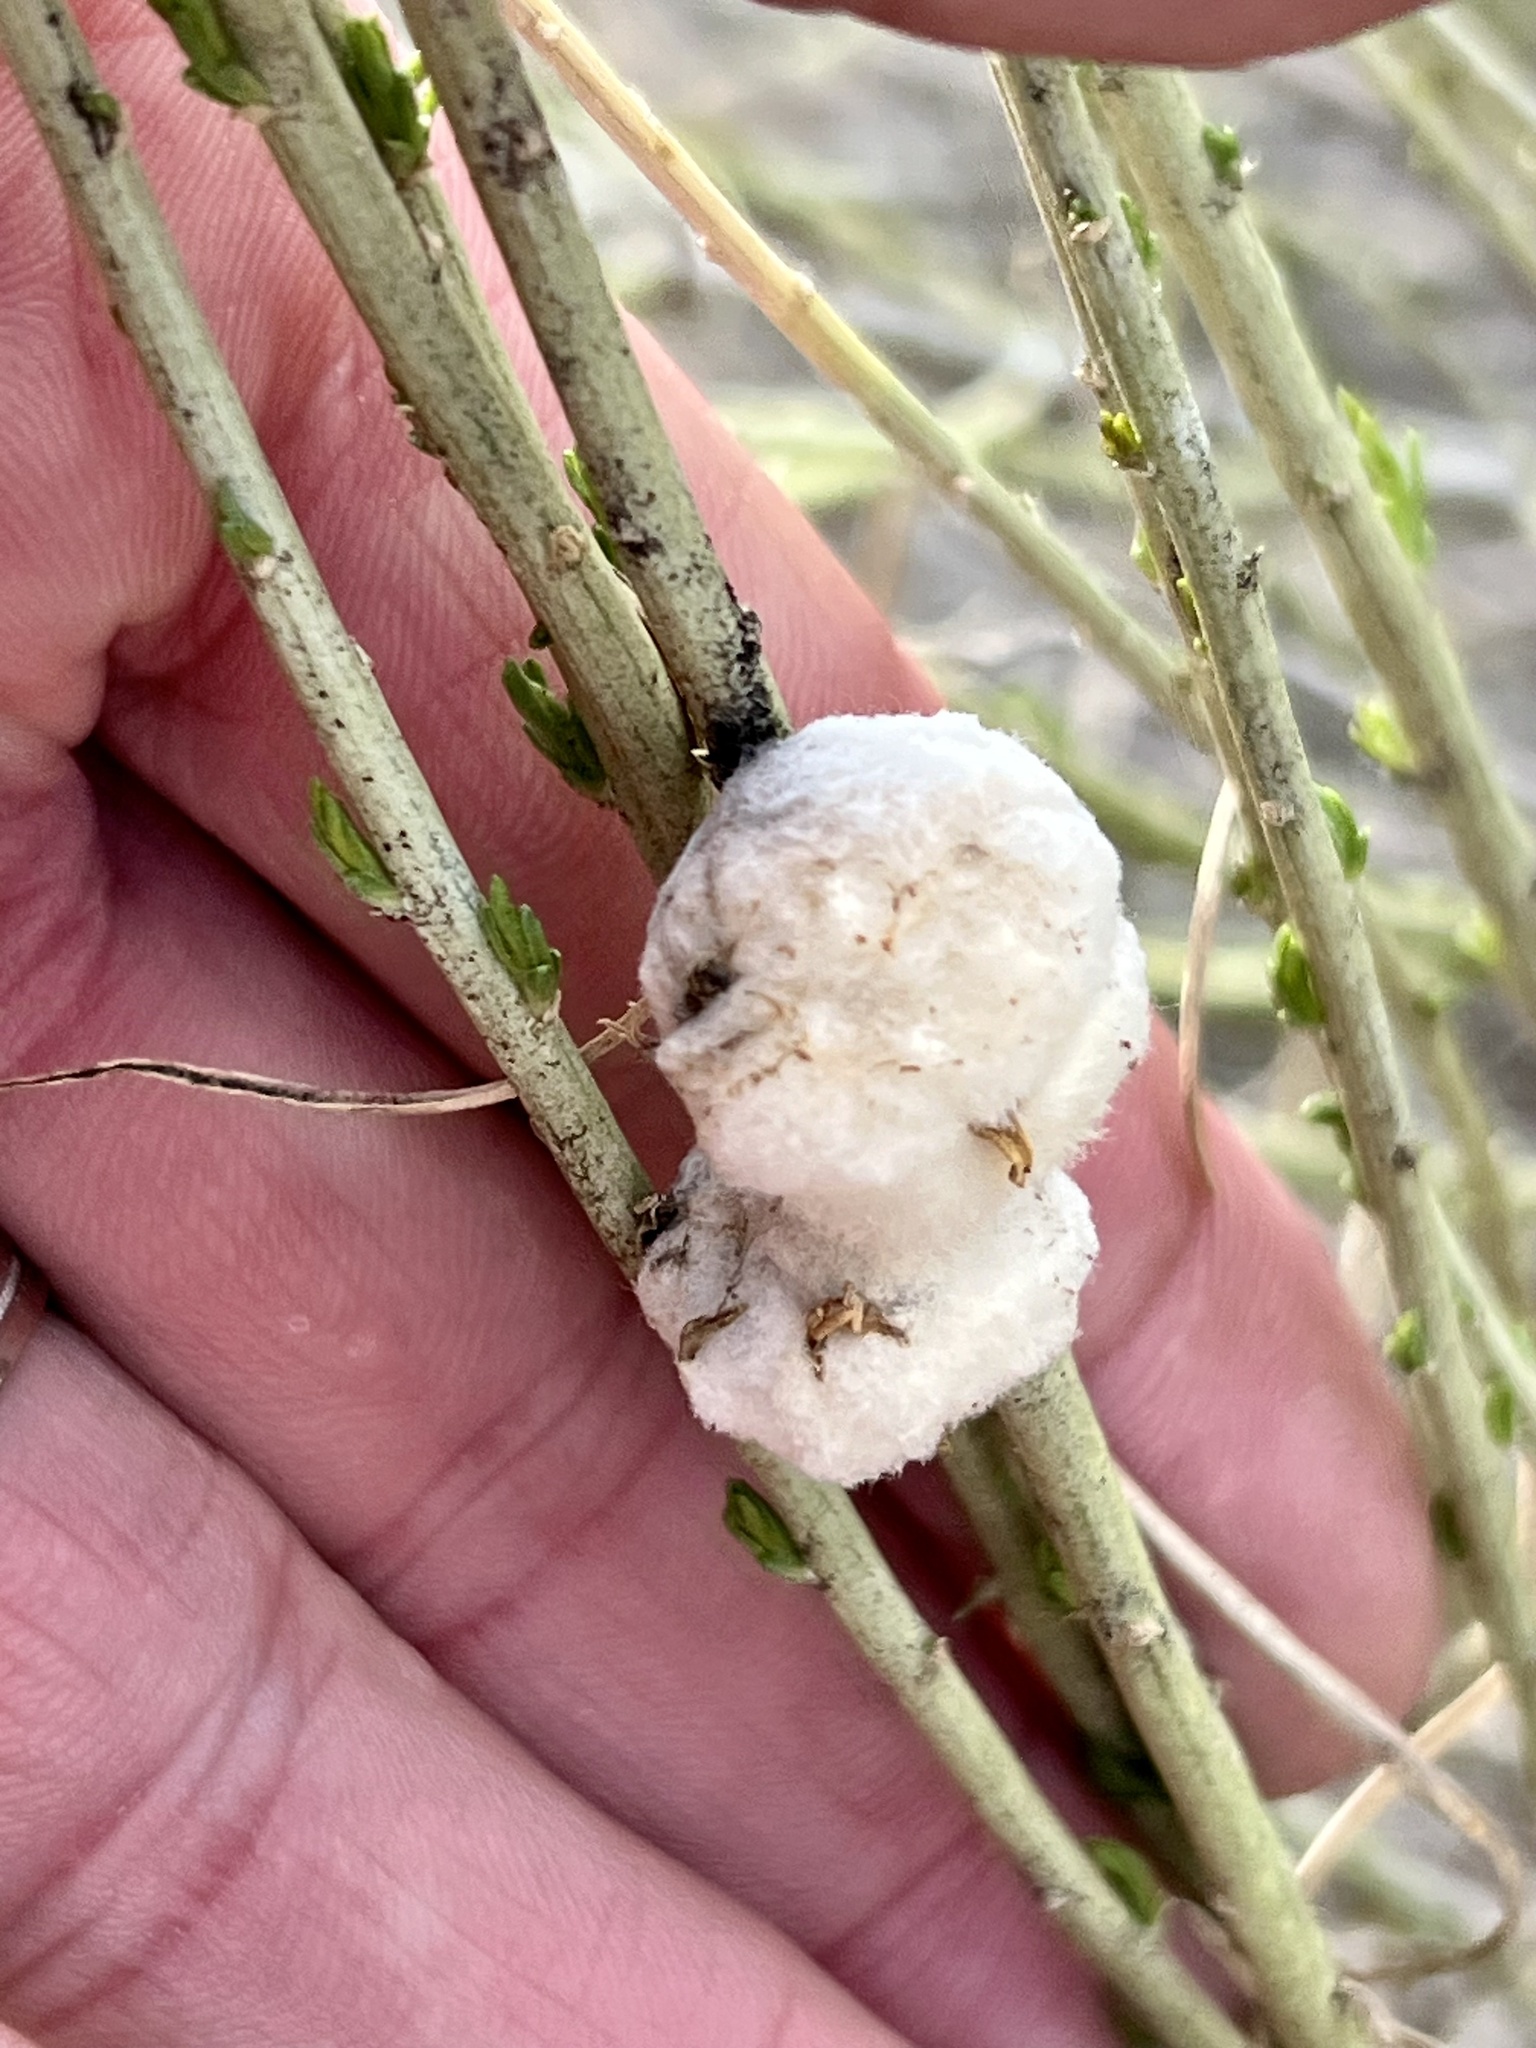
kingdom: Animalia
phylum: Arthropoda
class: Insecta
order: Diptera
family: Tephritidae
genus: Aciurina
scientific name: Aciurina bigeloviae
